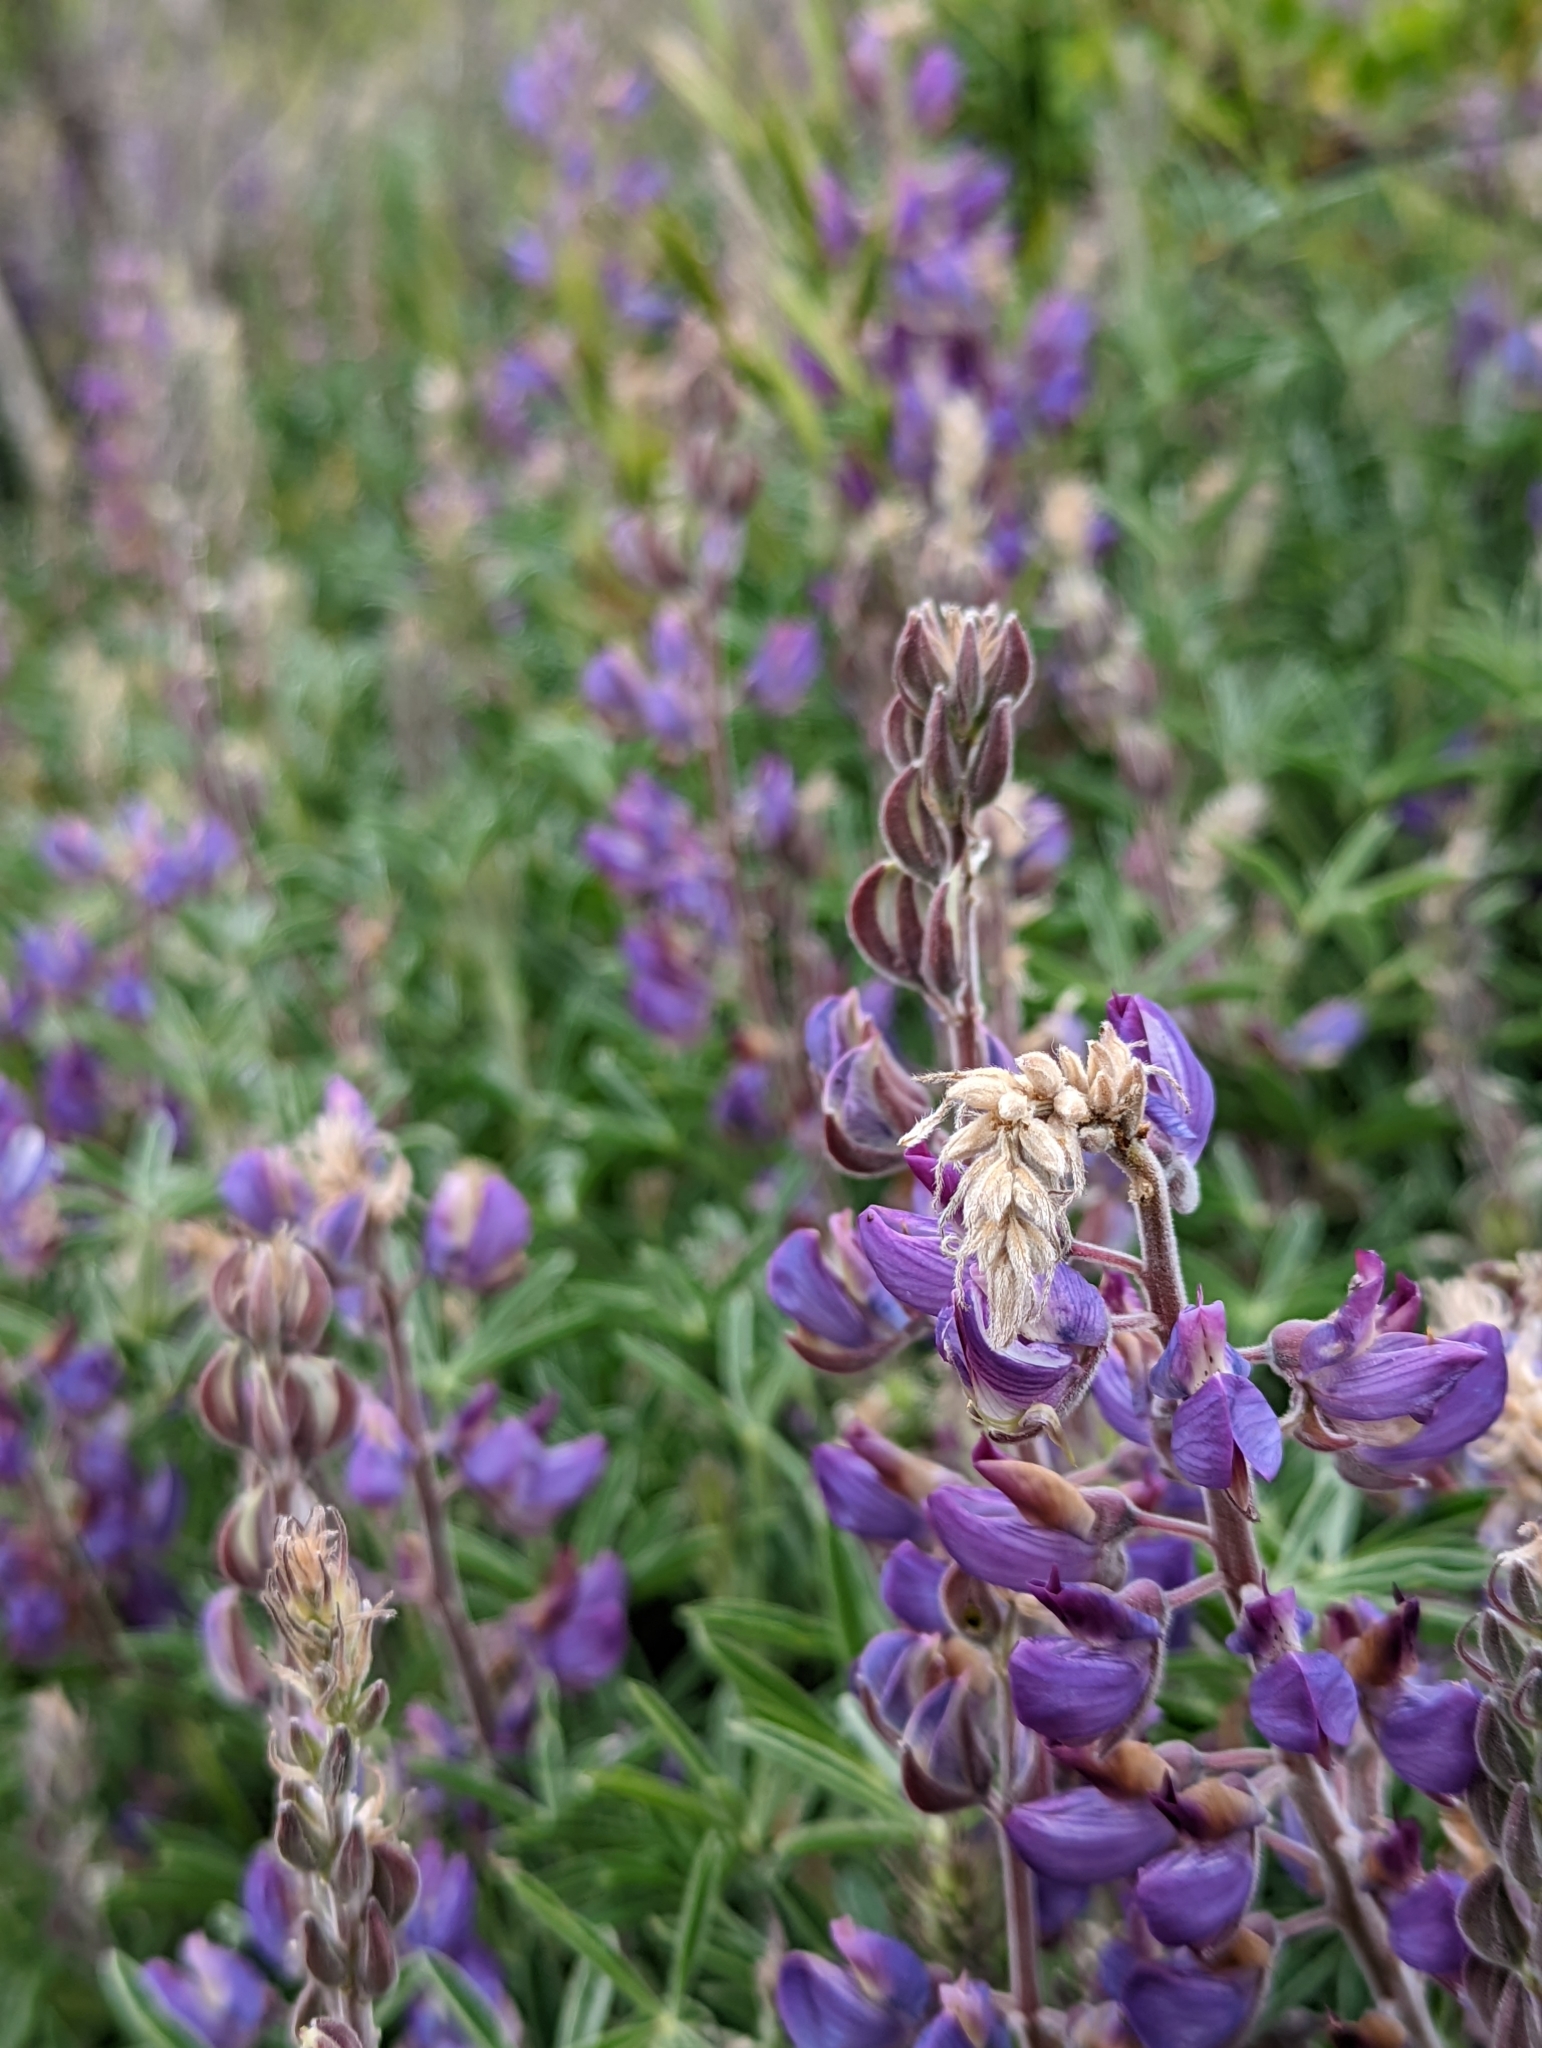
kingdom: Plantae
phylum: Tracheophyta
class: Magnoliopsida
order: Fabales
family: Fabaceae
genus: Lupinus
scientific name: Lupinus formosus
